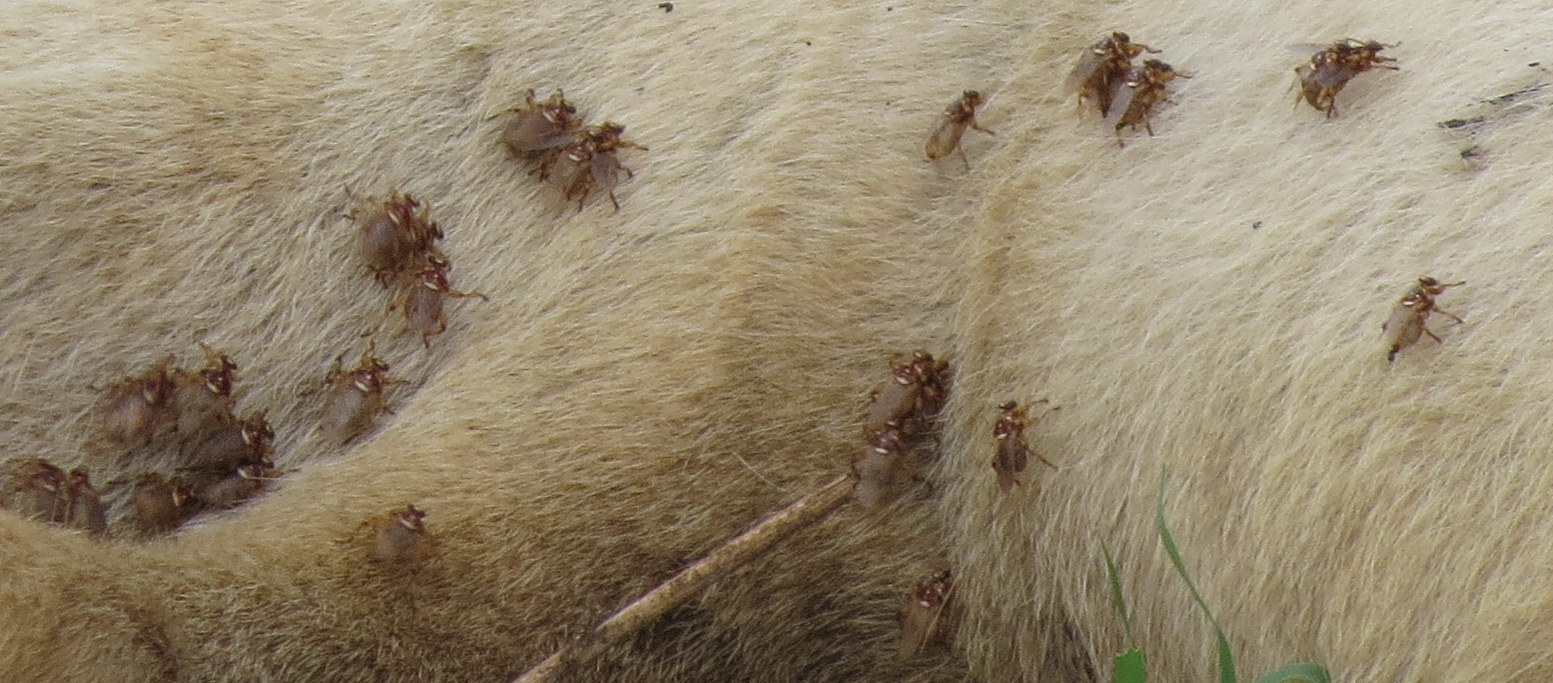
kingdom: Animalia
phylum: Arthropoda
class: Insecta
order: Diptera
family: Hippoboscidae
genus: Hippobosca
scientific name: Hippobosca longipennis
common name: Louse fly
